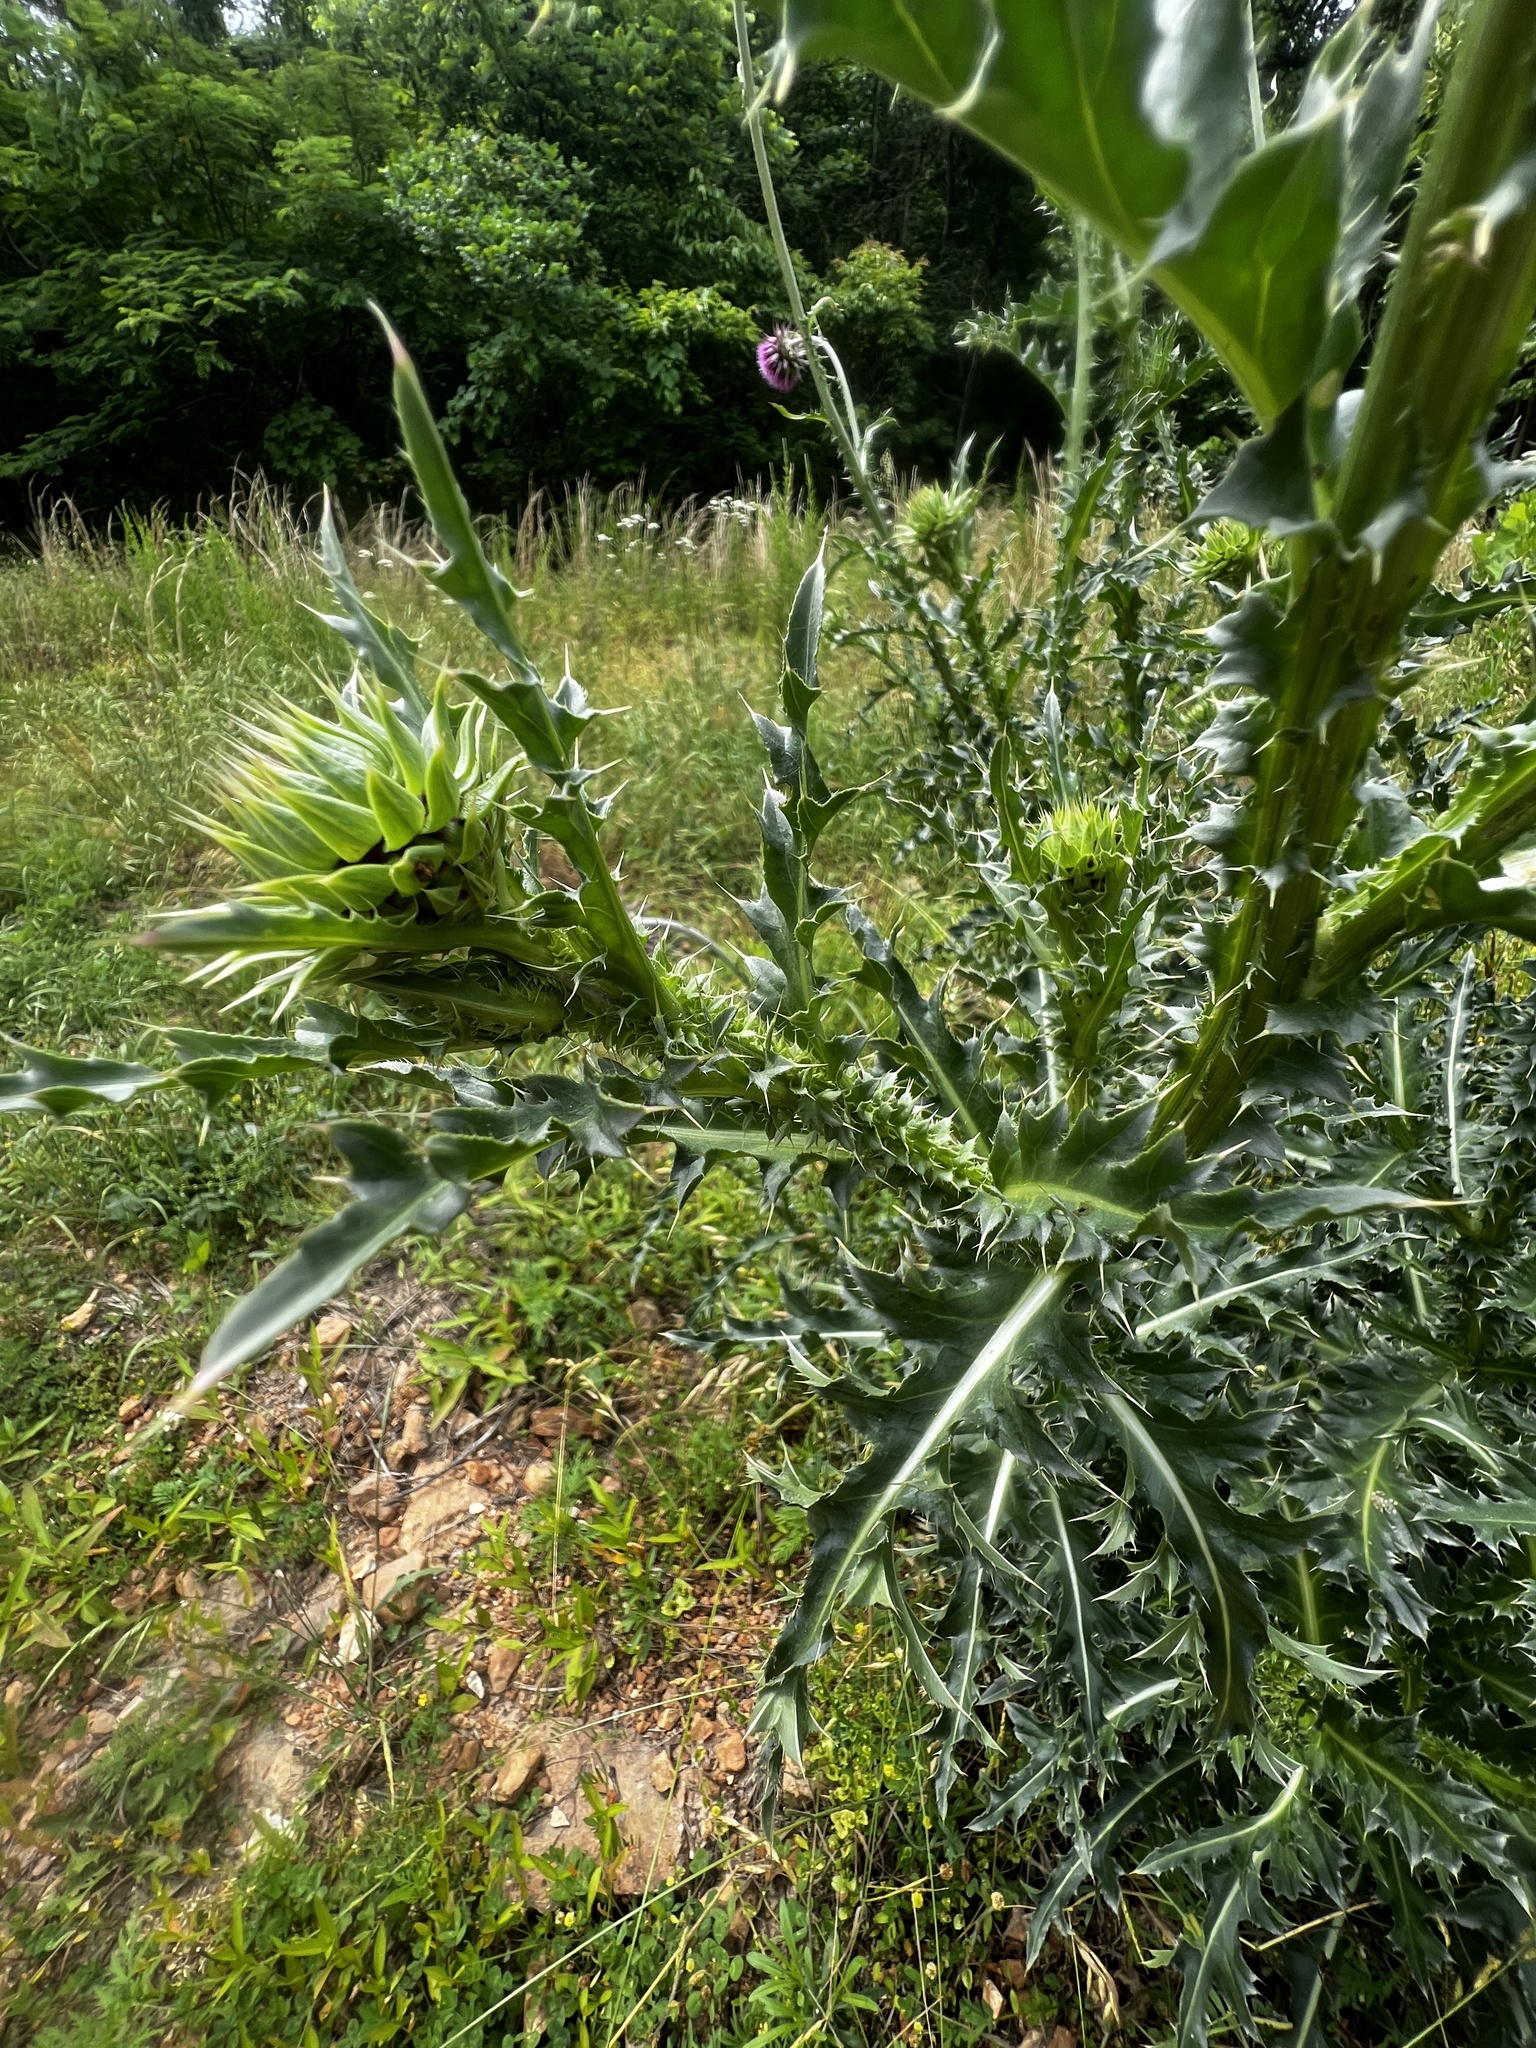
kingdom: Plantae
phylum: Tracheophyta
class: Magnoliopsida
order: Asterales
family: Asteraceae
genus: Carduus
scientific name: Carduus nutans
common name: Musk thistle
